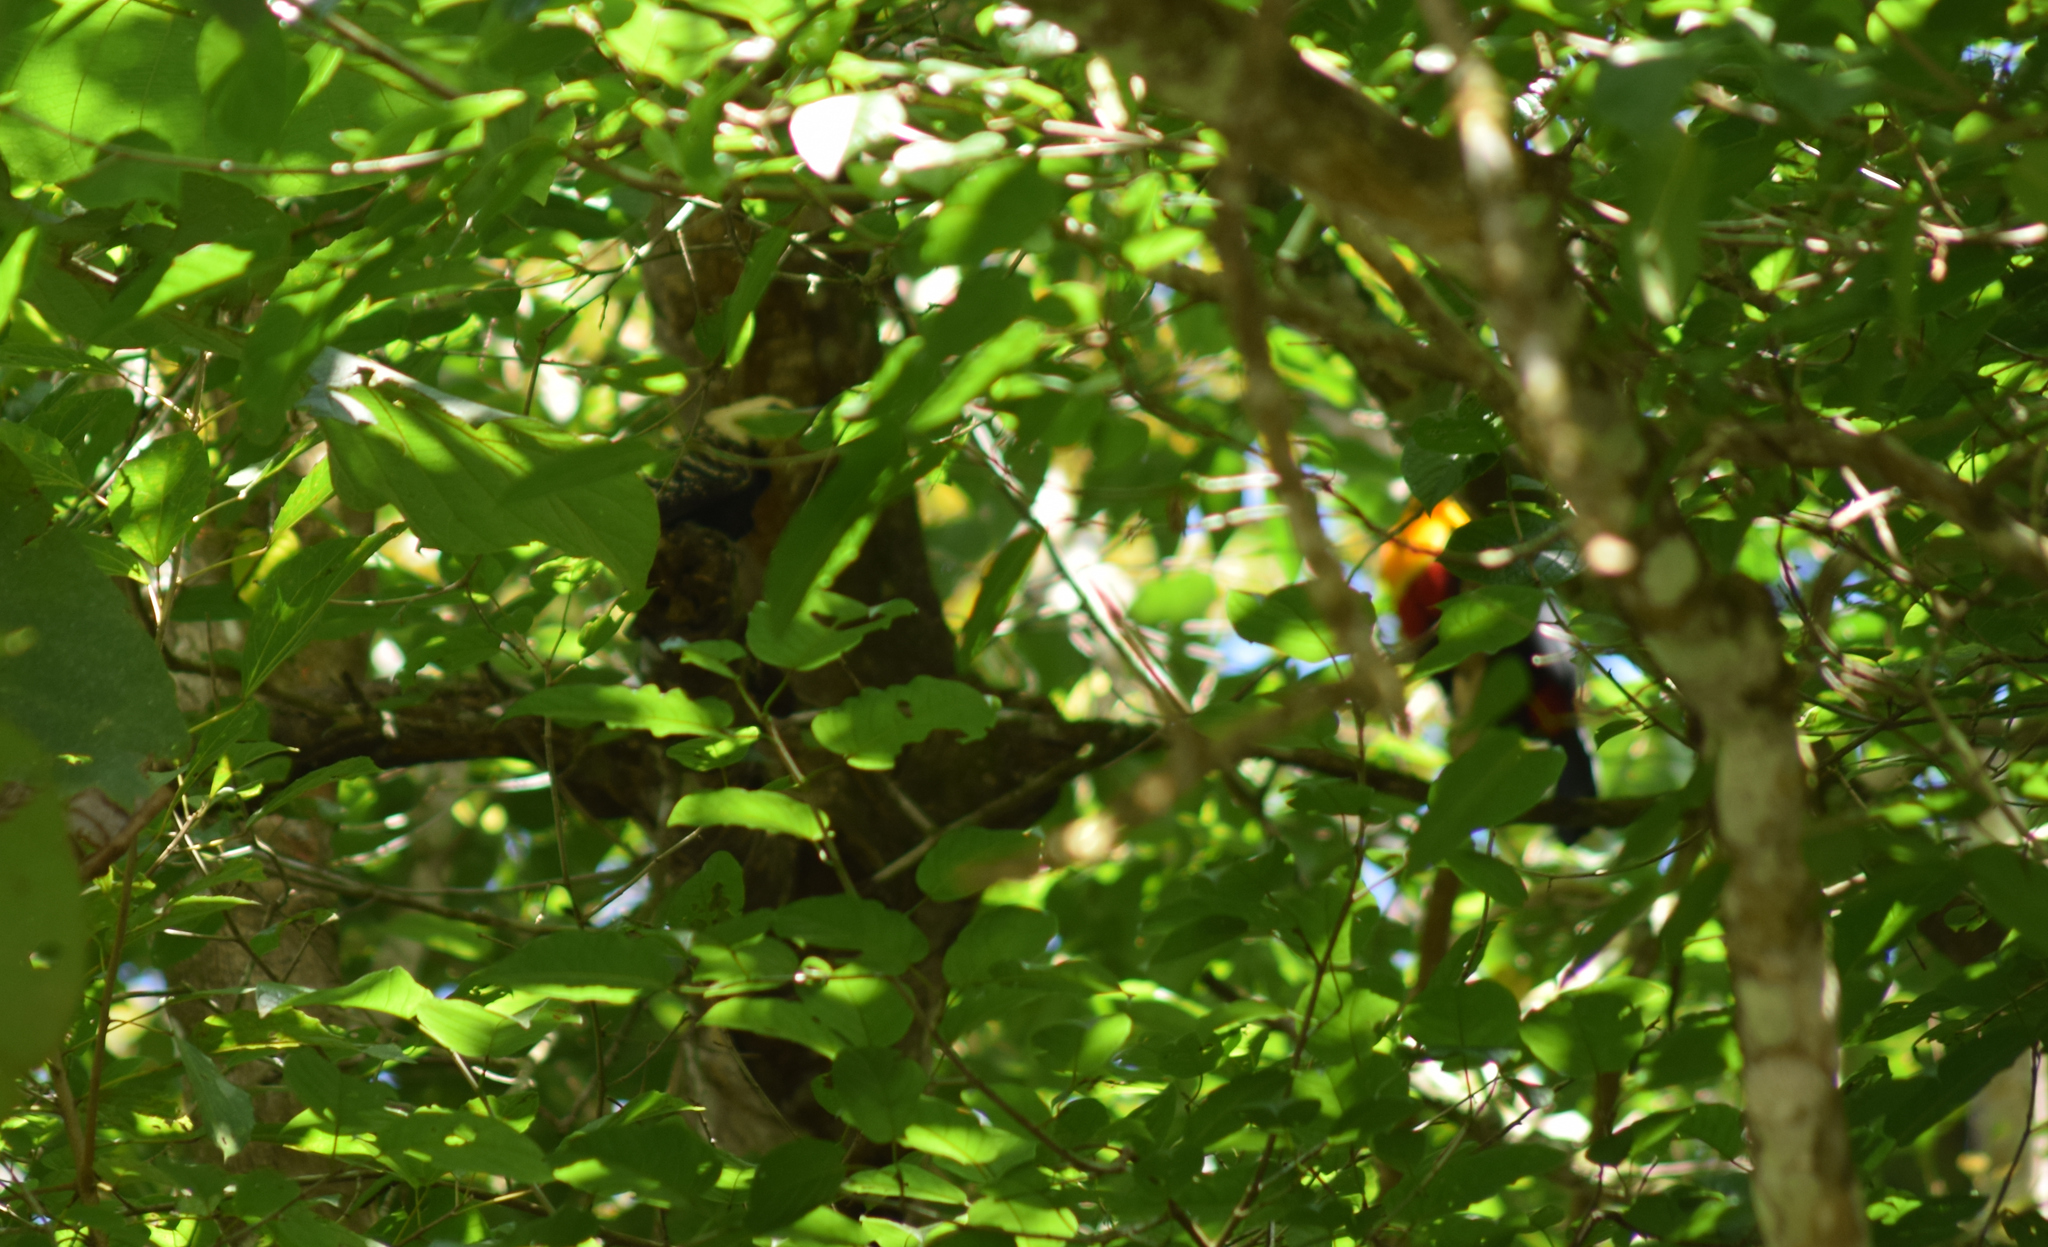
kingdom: Animalia
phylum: Chordata
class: Aves
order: Piciformes
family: Picidae
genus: Celeus
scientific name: Celeus flavescens
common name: Blond-crested woodpecker
